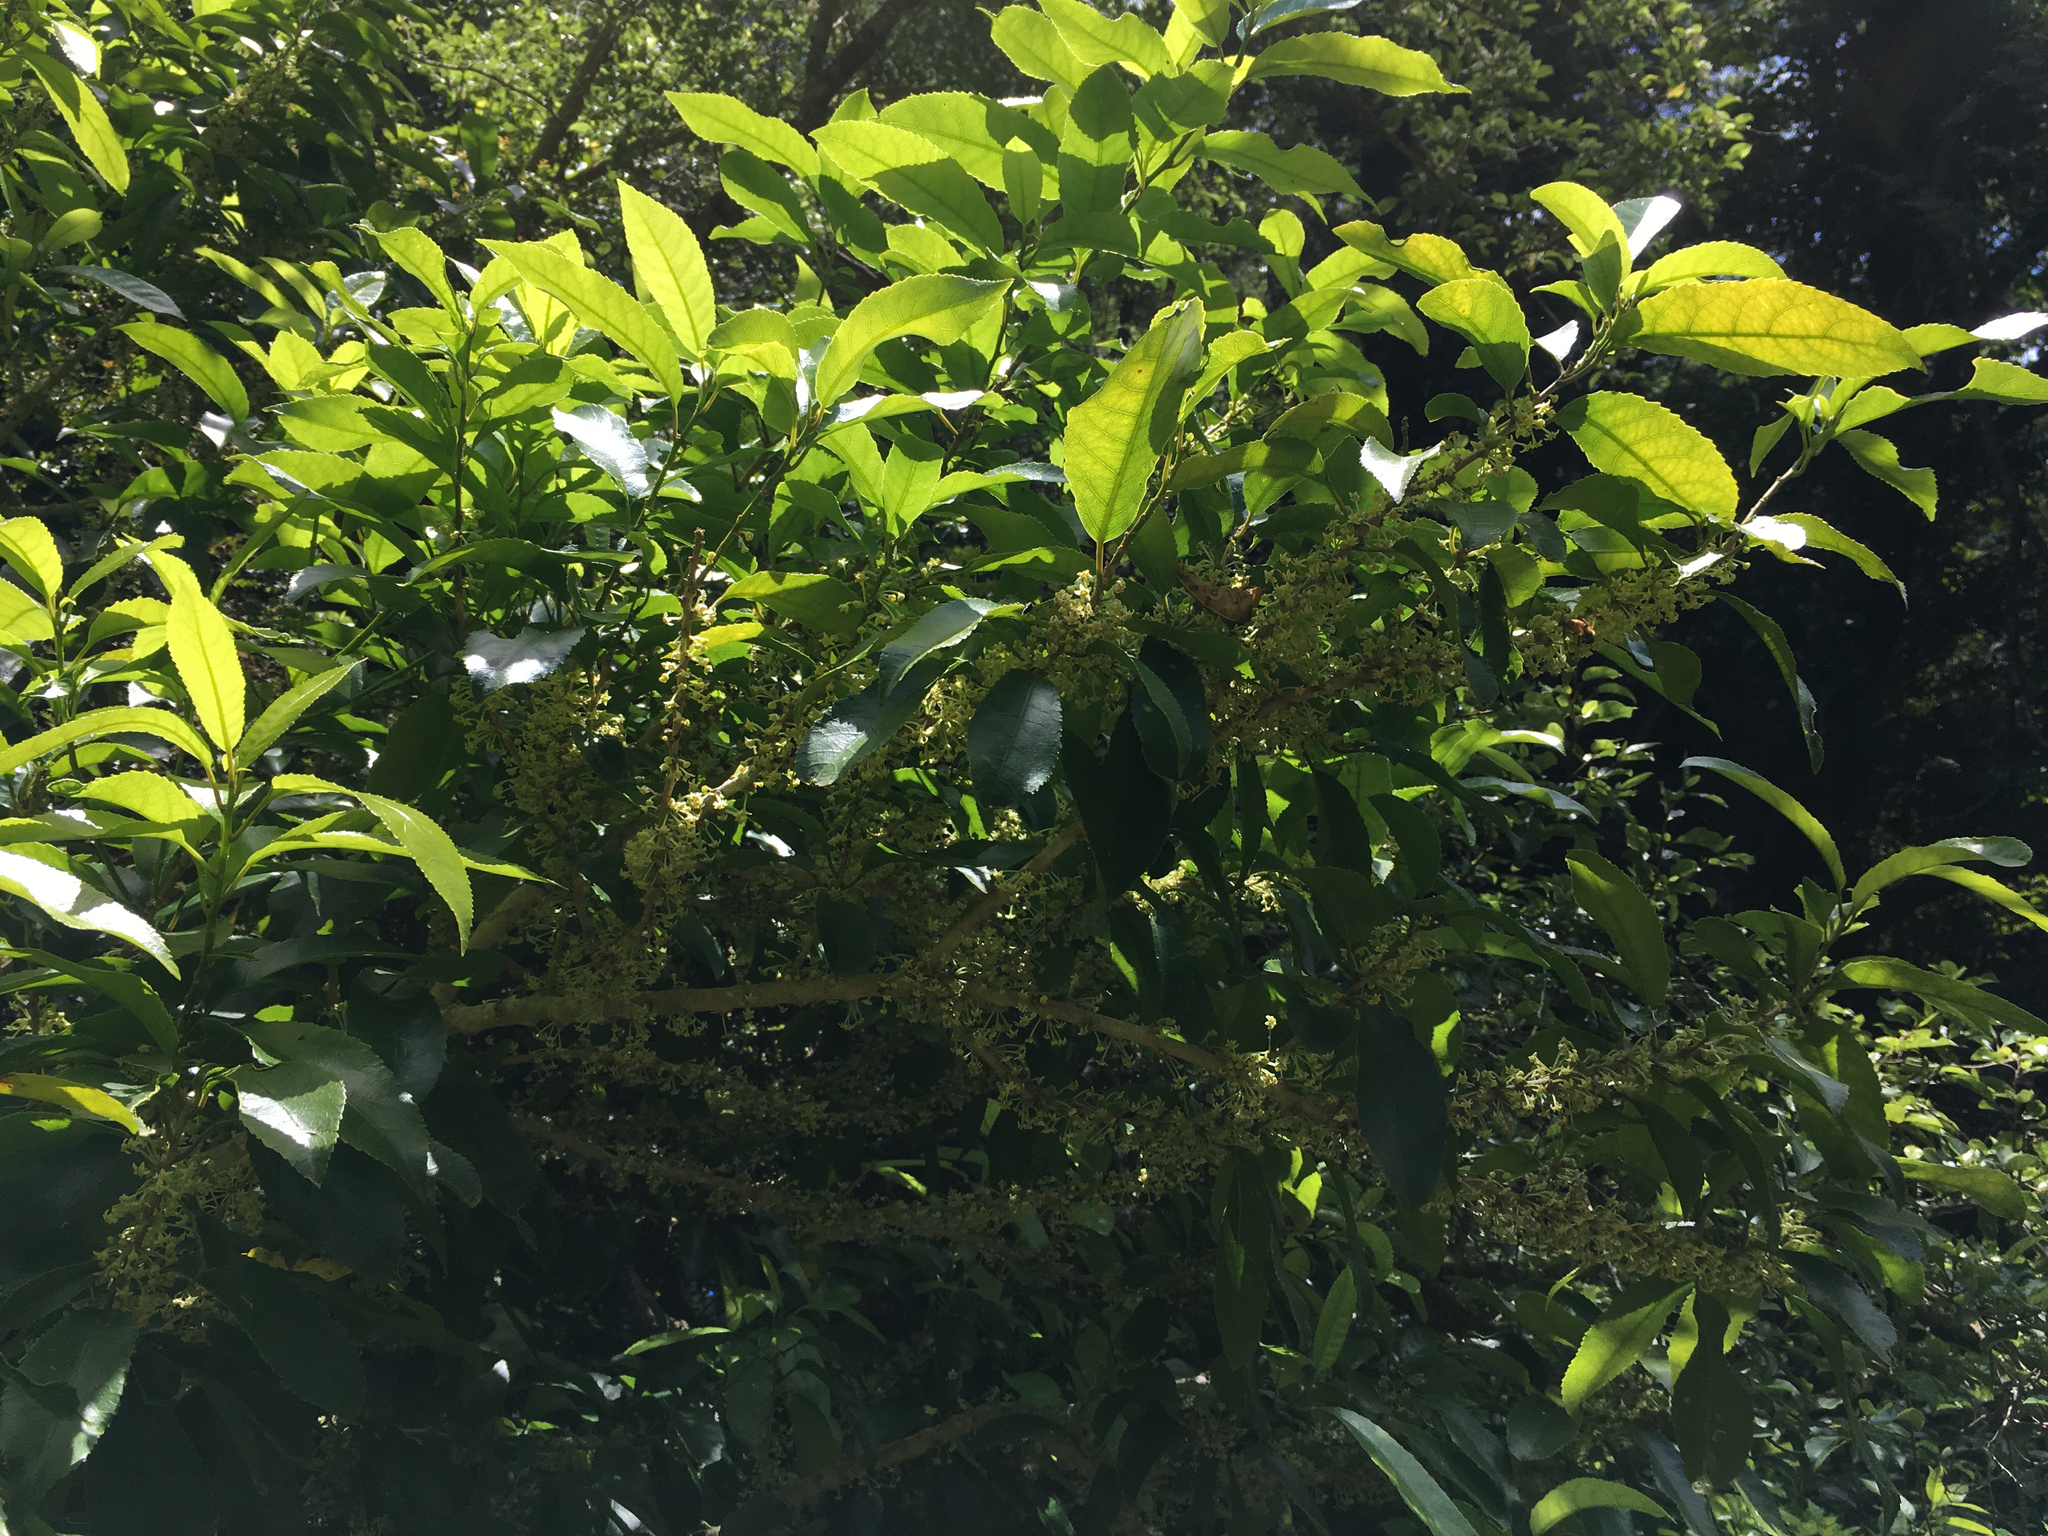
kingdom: Plantae
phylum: Tracheophyta
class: Magnoliopsida
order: Malpighiales
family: Violaceae
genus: Melicytus
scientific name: Melicytus ramiflorus
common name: Mahoe
